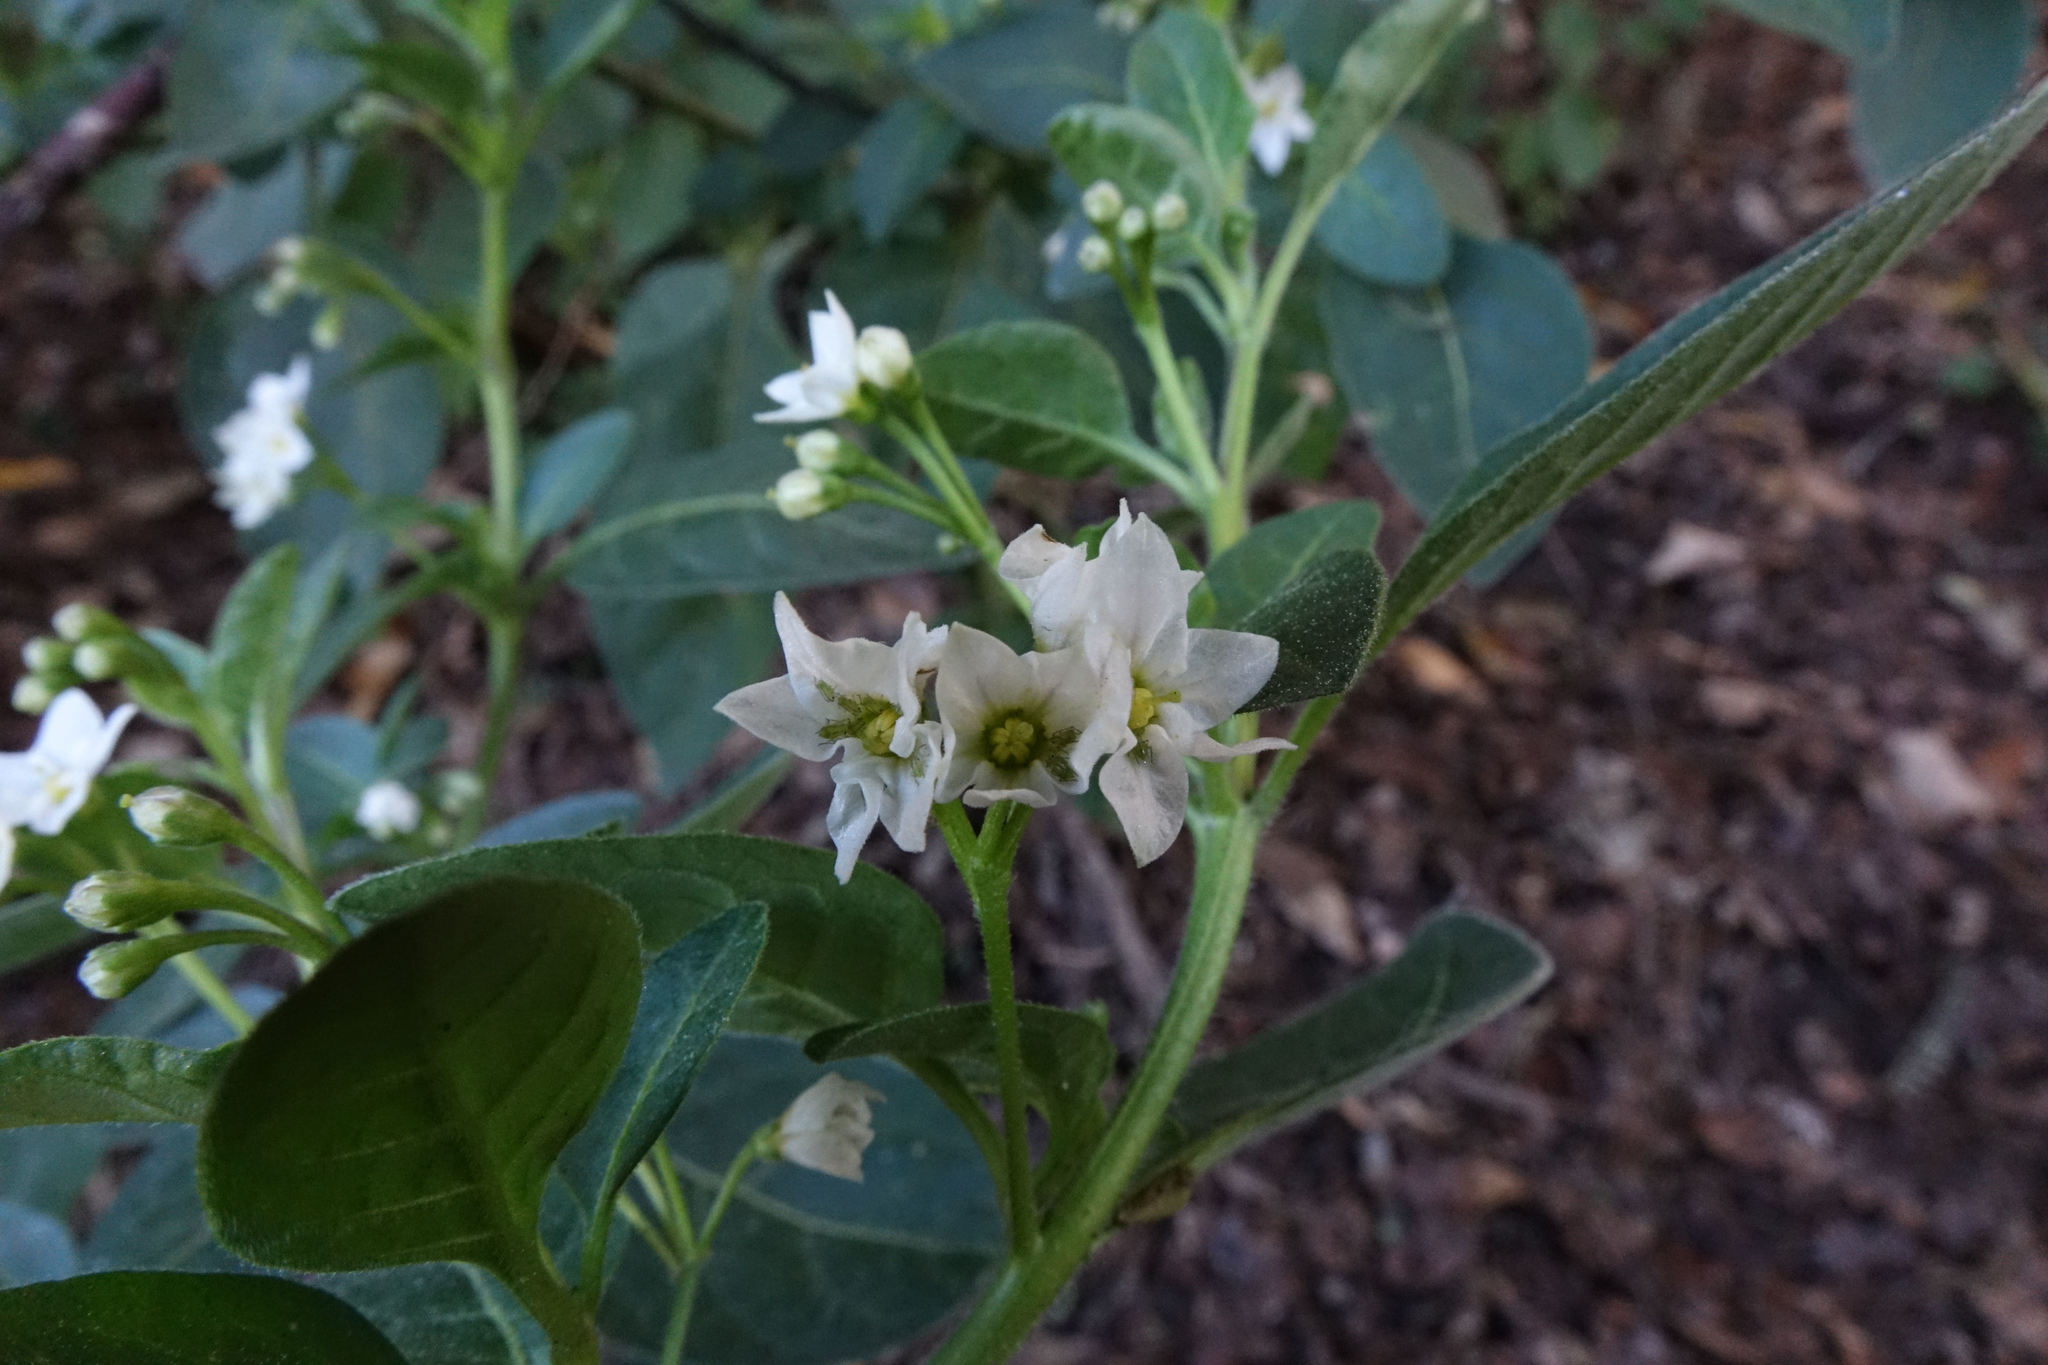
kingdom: Plantae
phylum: Tracheophyta
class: Magnoliopsida
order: Solanales
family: Solanaceae
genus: Solanum
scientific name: Solanum chenopodioides
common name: Tall nightshade
